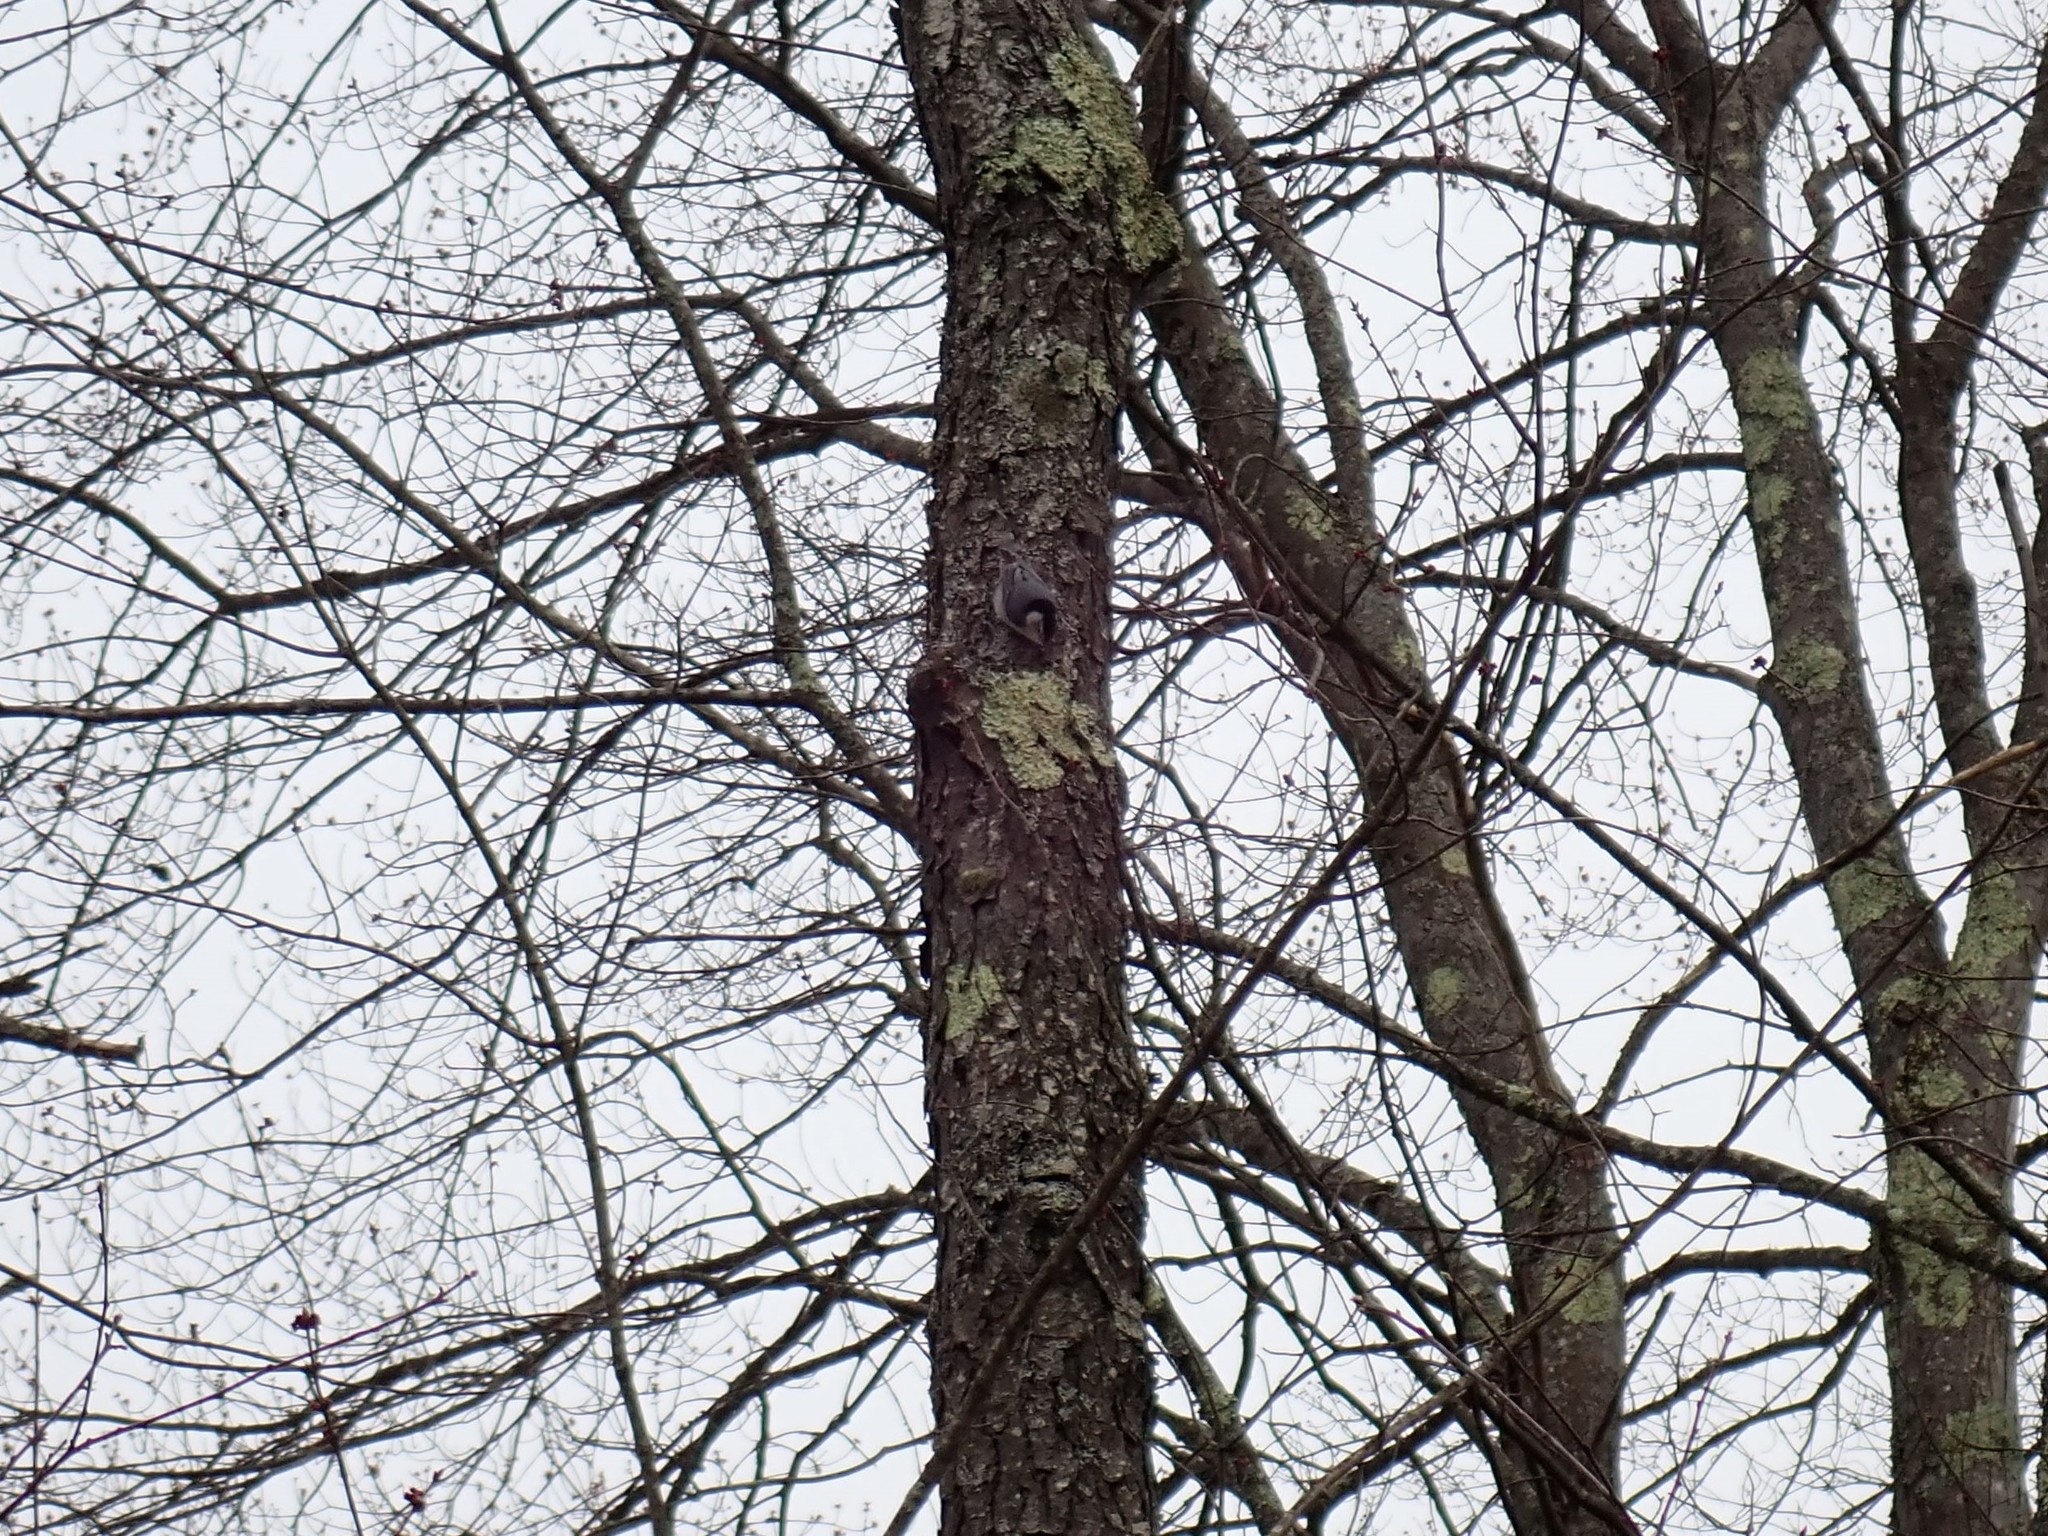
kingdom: Animalia
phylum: Chordata
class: Aves
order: Passeriformes
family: Sittidae
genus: Sitta
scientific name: Sitta carolinensis
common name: White-breasted nuthatch
